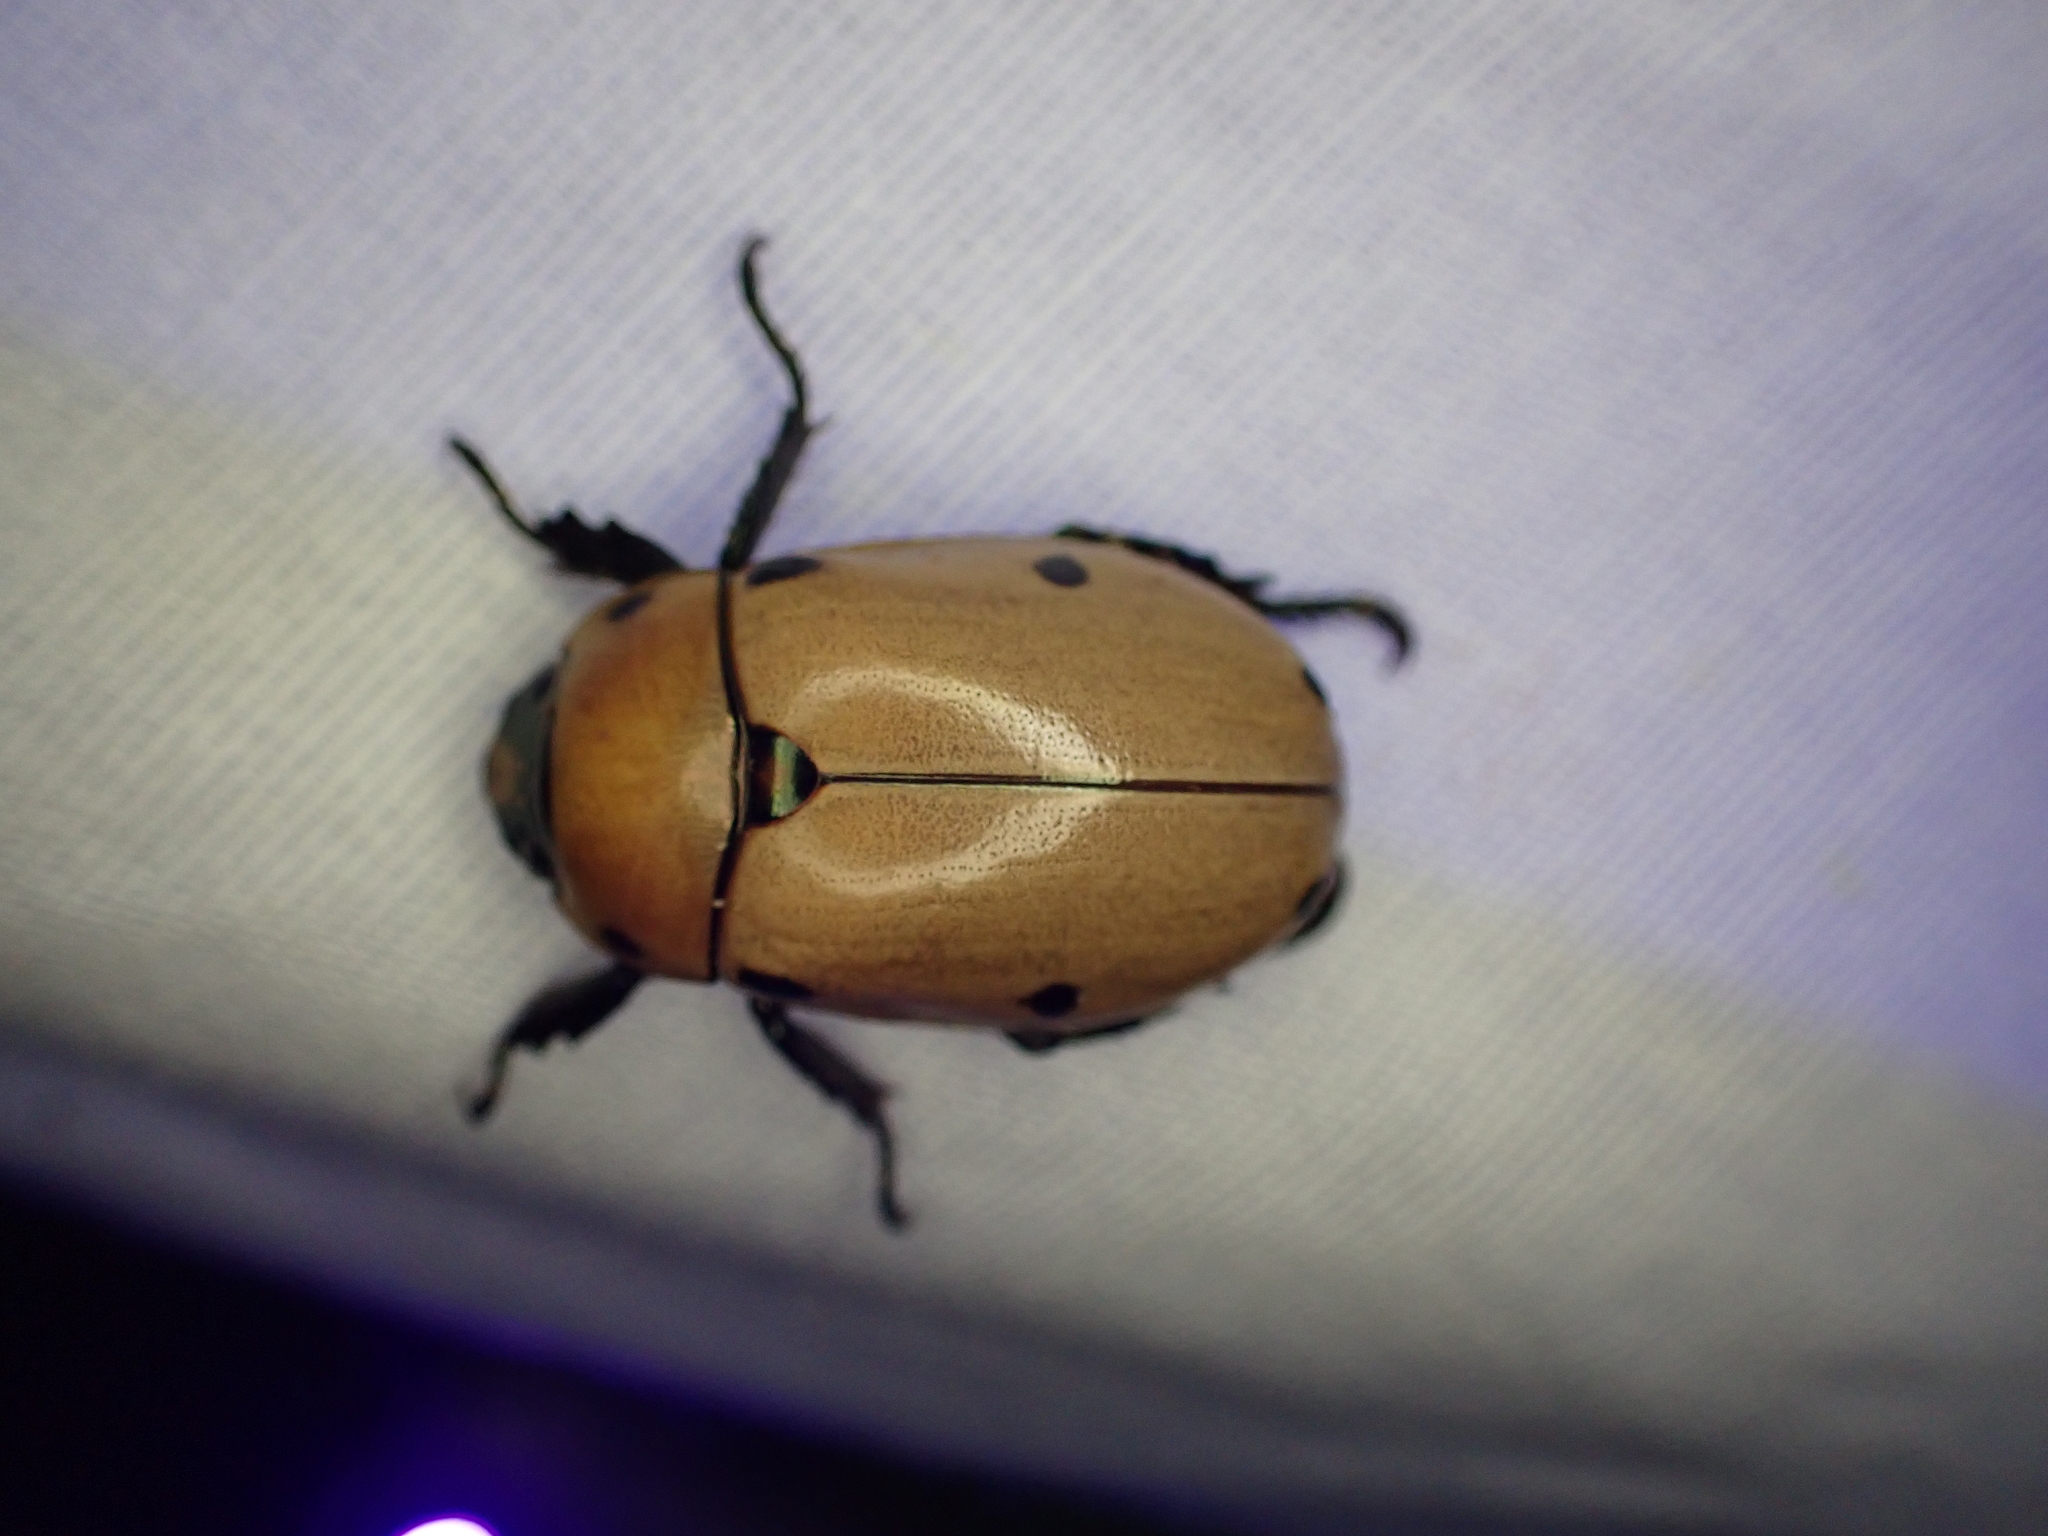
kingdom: Animalia
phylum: Arthropoda
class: Insecta
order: Coleoptera
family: Scarabaeidae
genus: Pelidnota
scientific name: Pelidnota punctata
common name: Grapevine beetle
